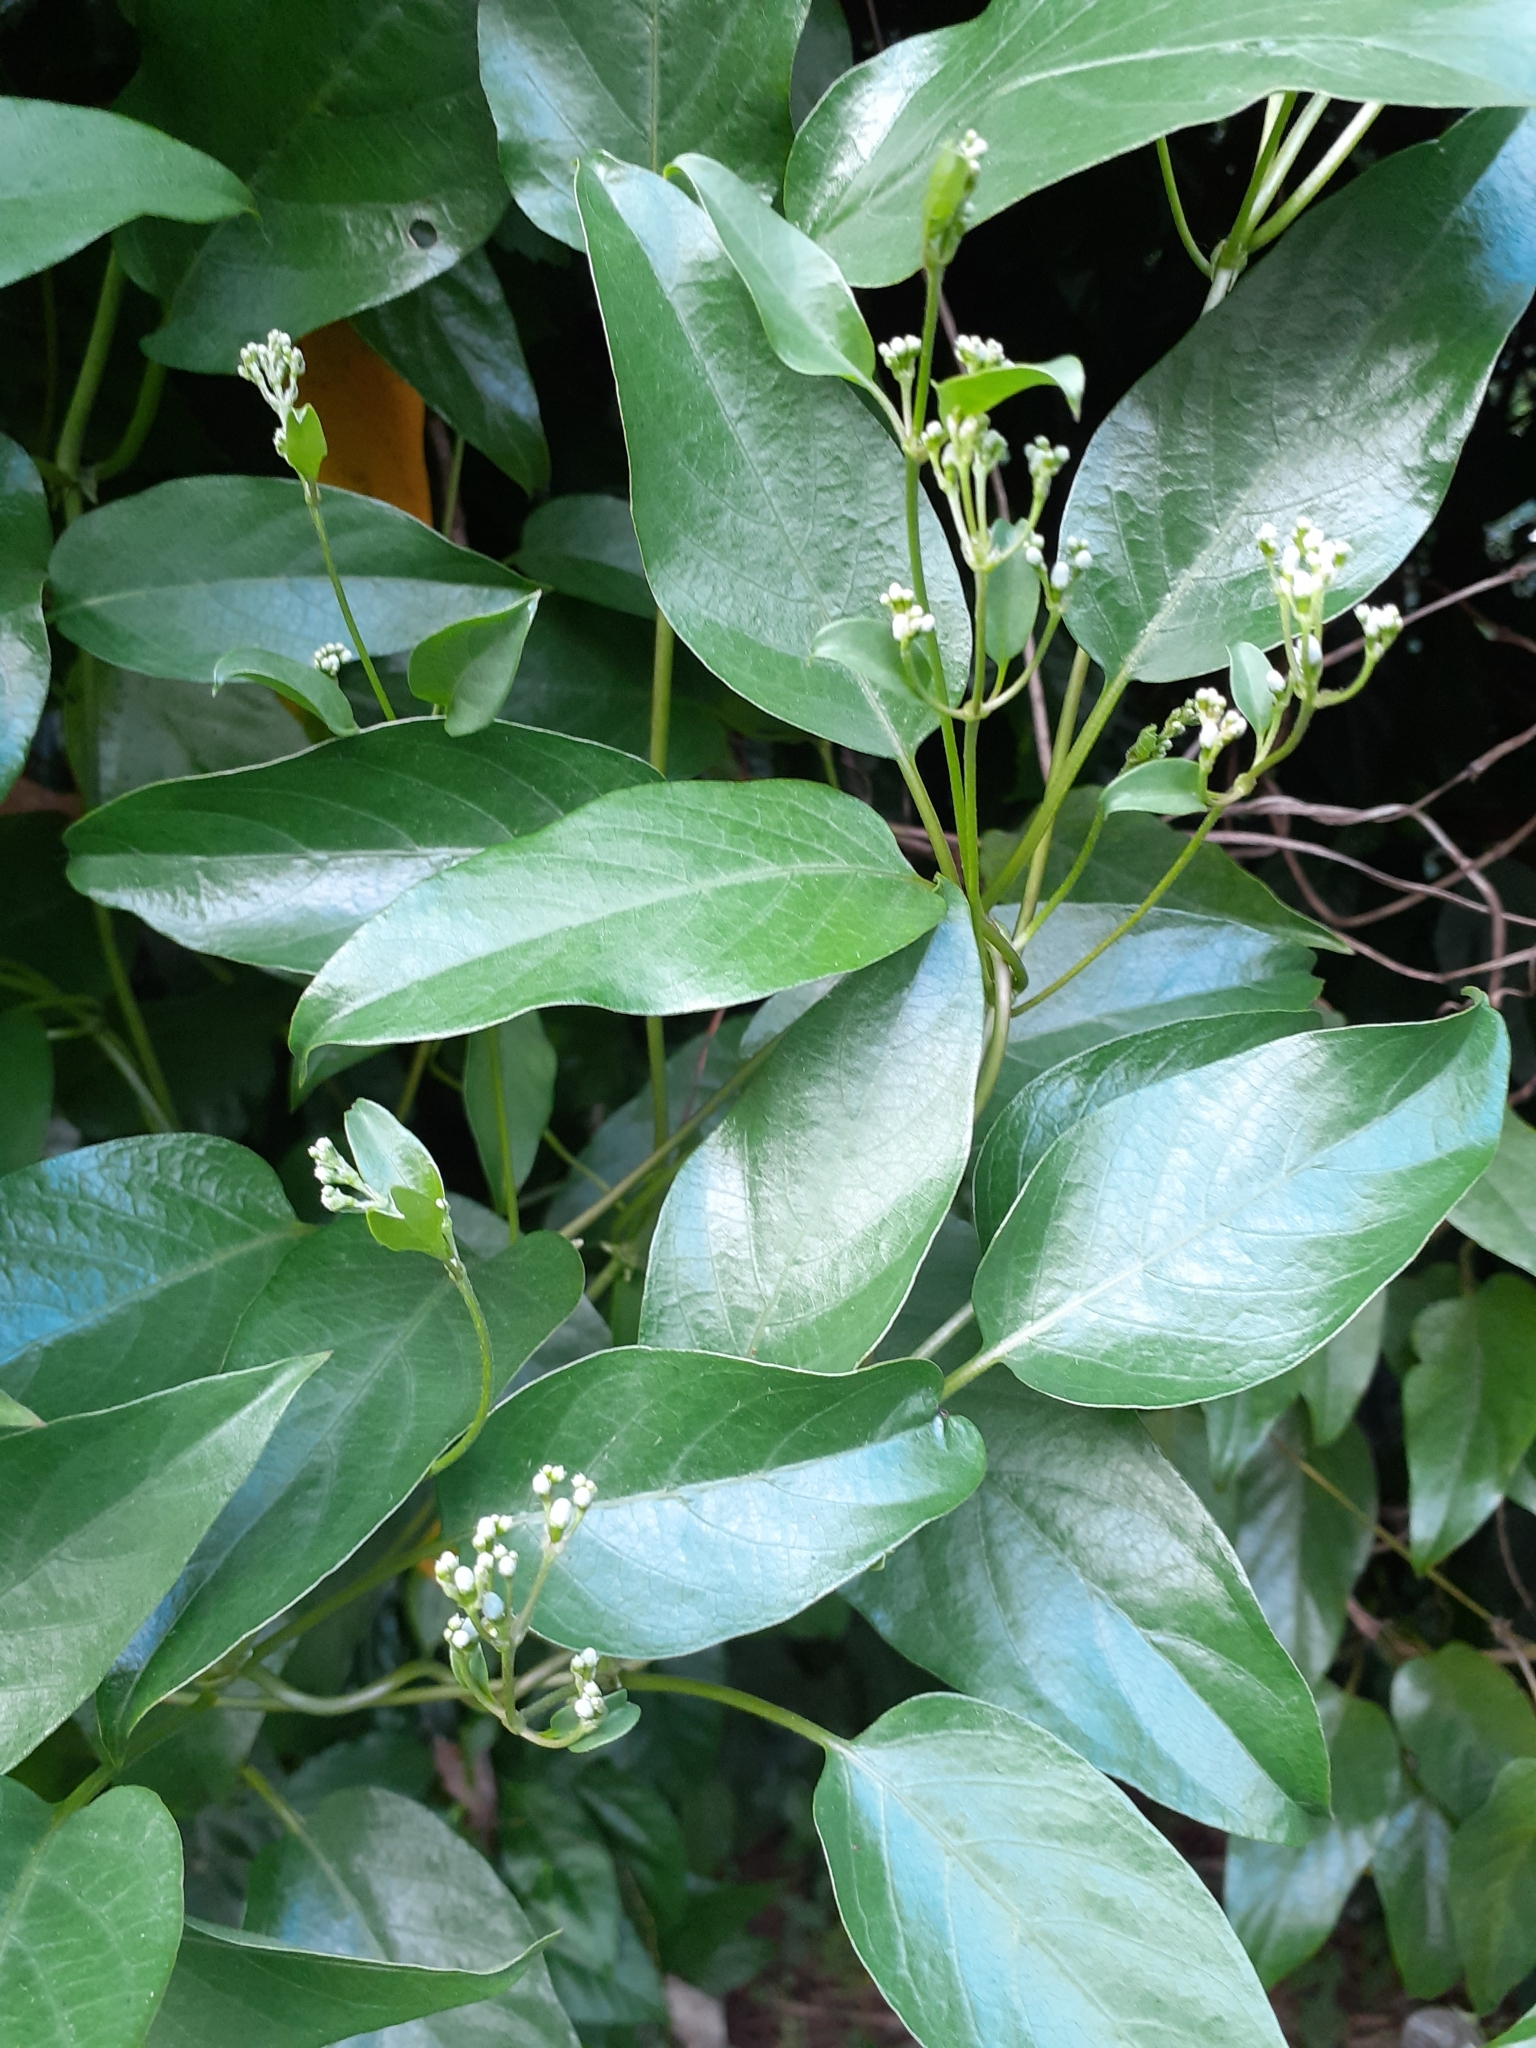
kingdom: Plantae
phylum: Tracheophyta
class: Magnoliopsida
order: Gentianales
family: Rubiaceae
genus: Paederia
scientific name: Paederia foetida
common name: Stinkvine
